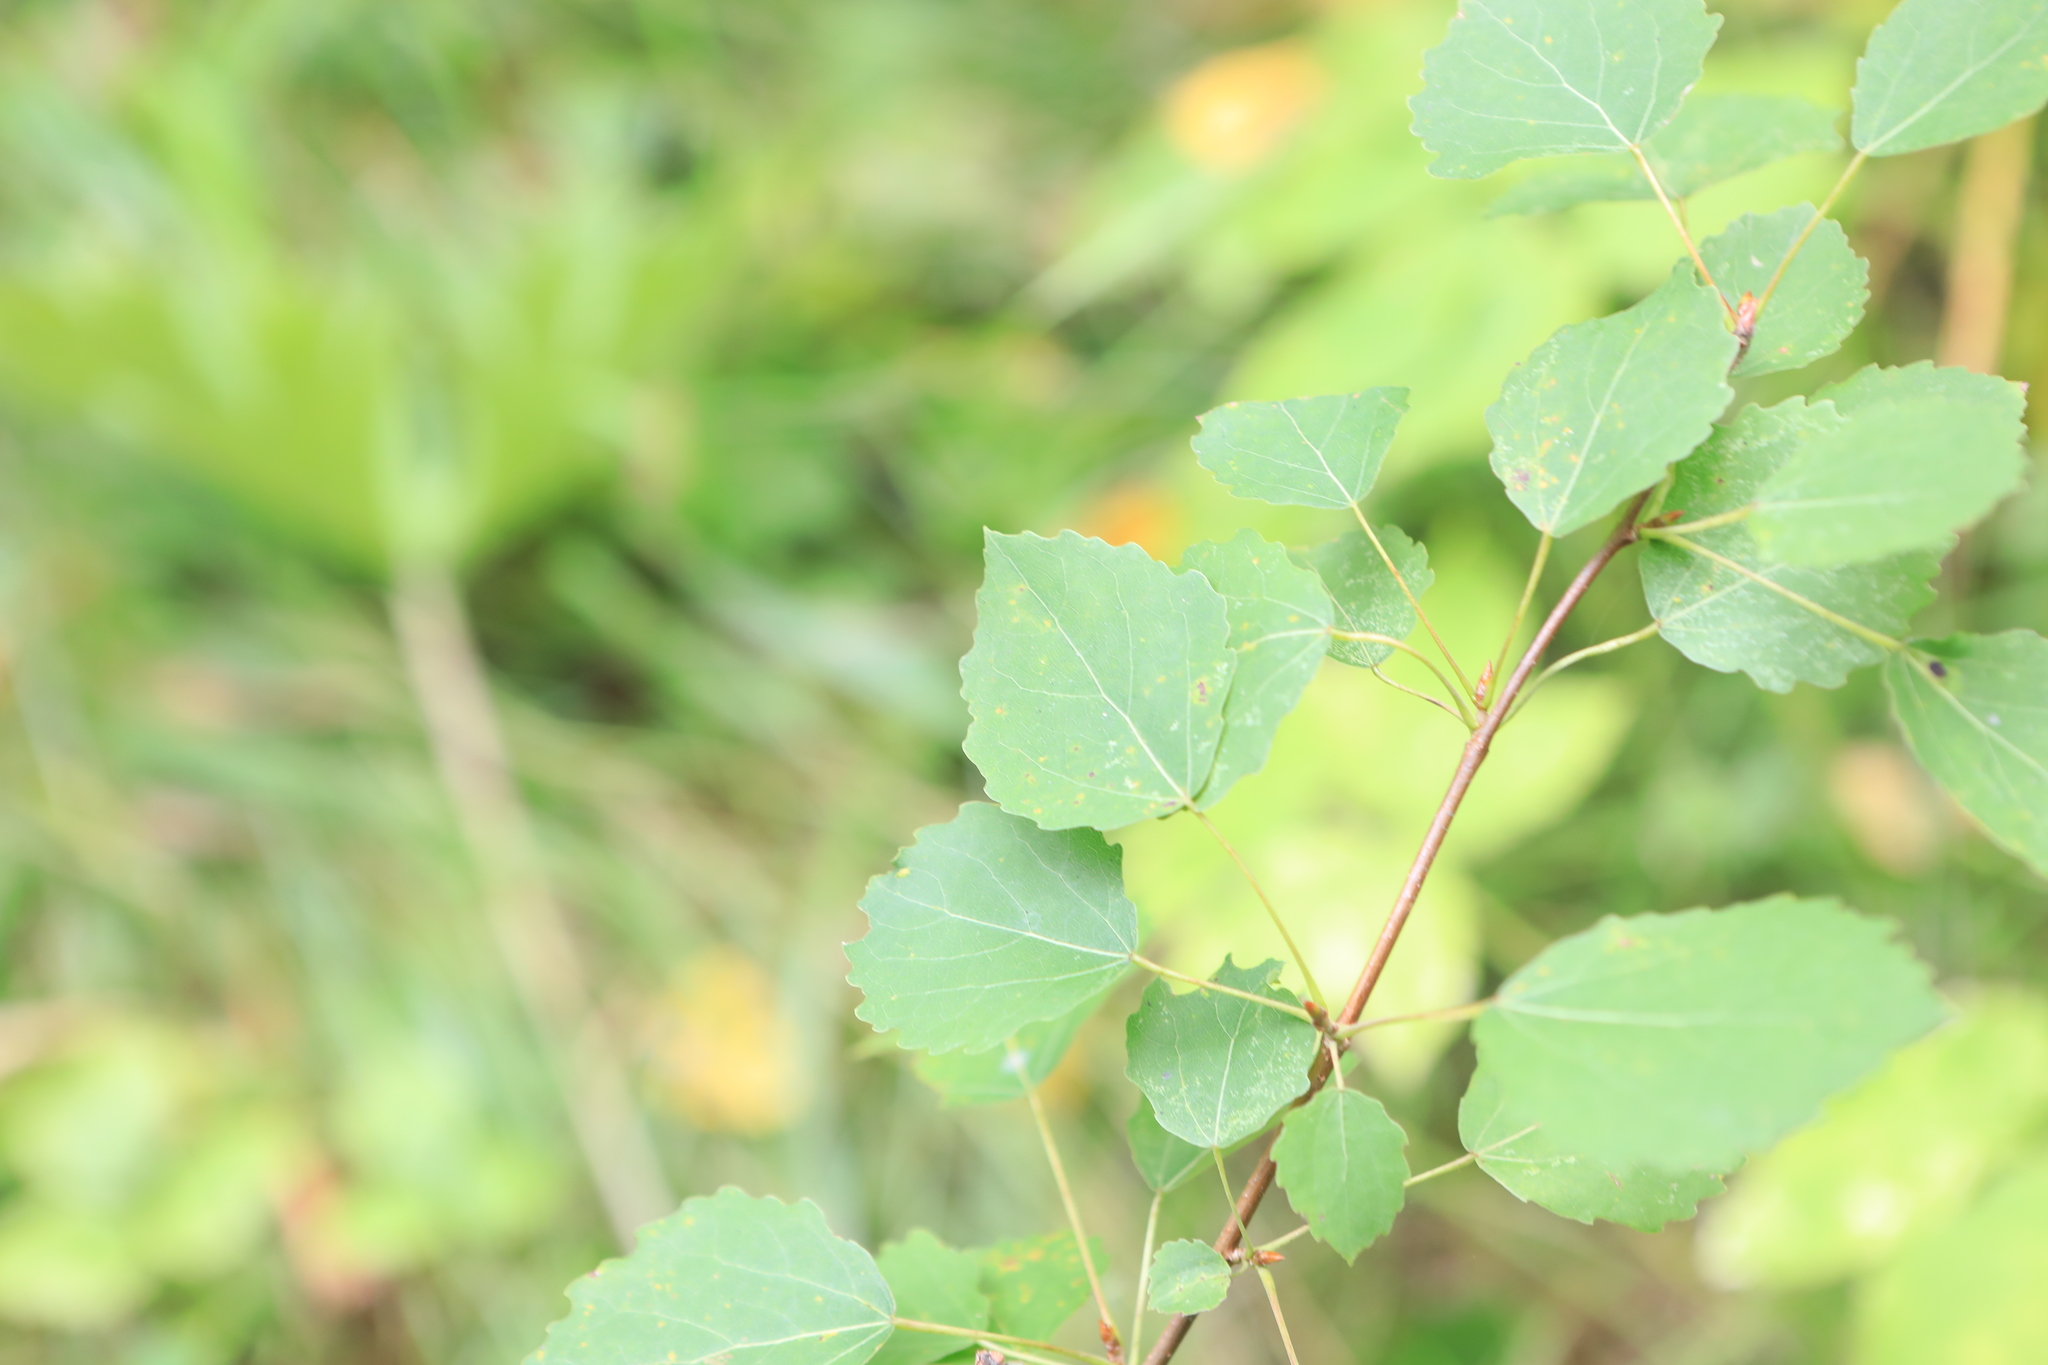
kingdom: Plantae
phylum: Tracheophyta
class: Magnoliopsida
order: Malpighiales
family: Salicaceae
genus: Populus
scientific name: Populus tremula
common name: European aspen
